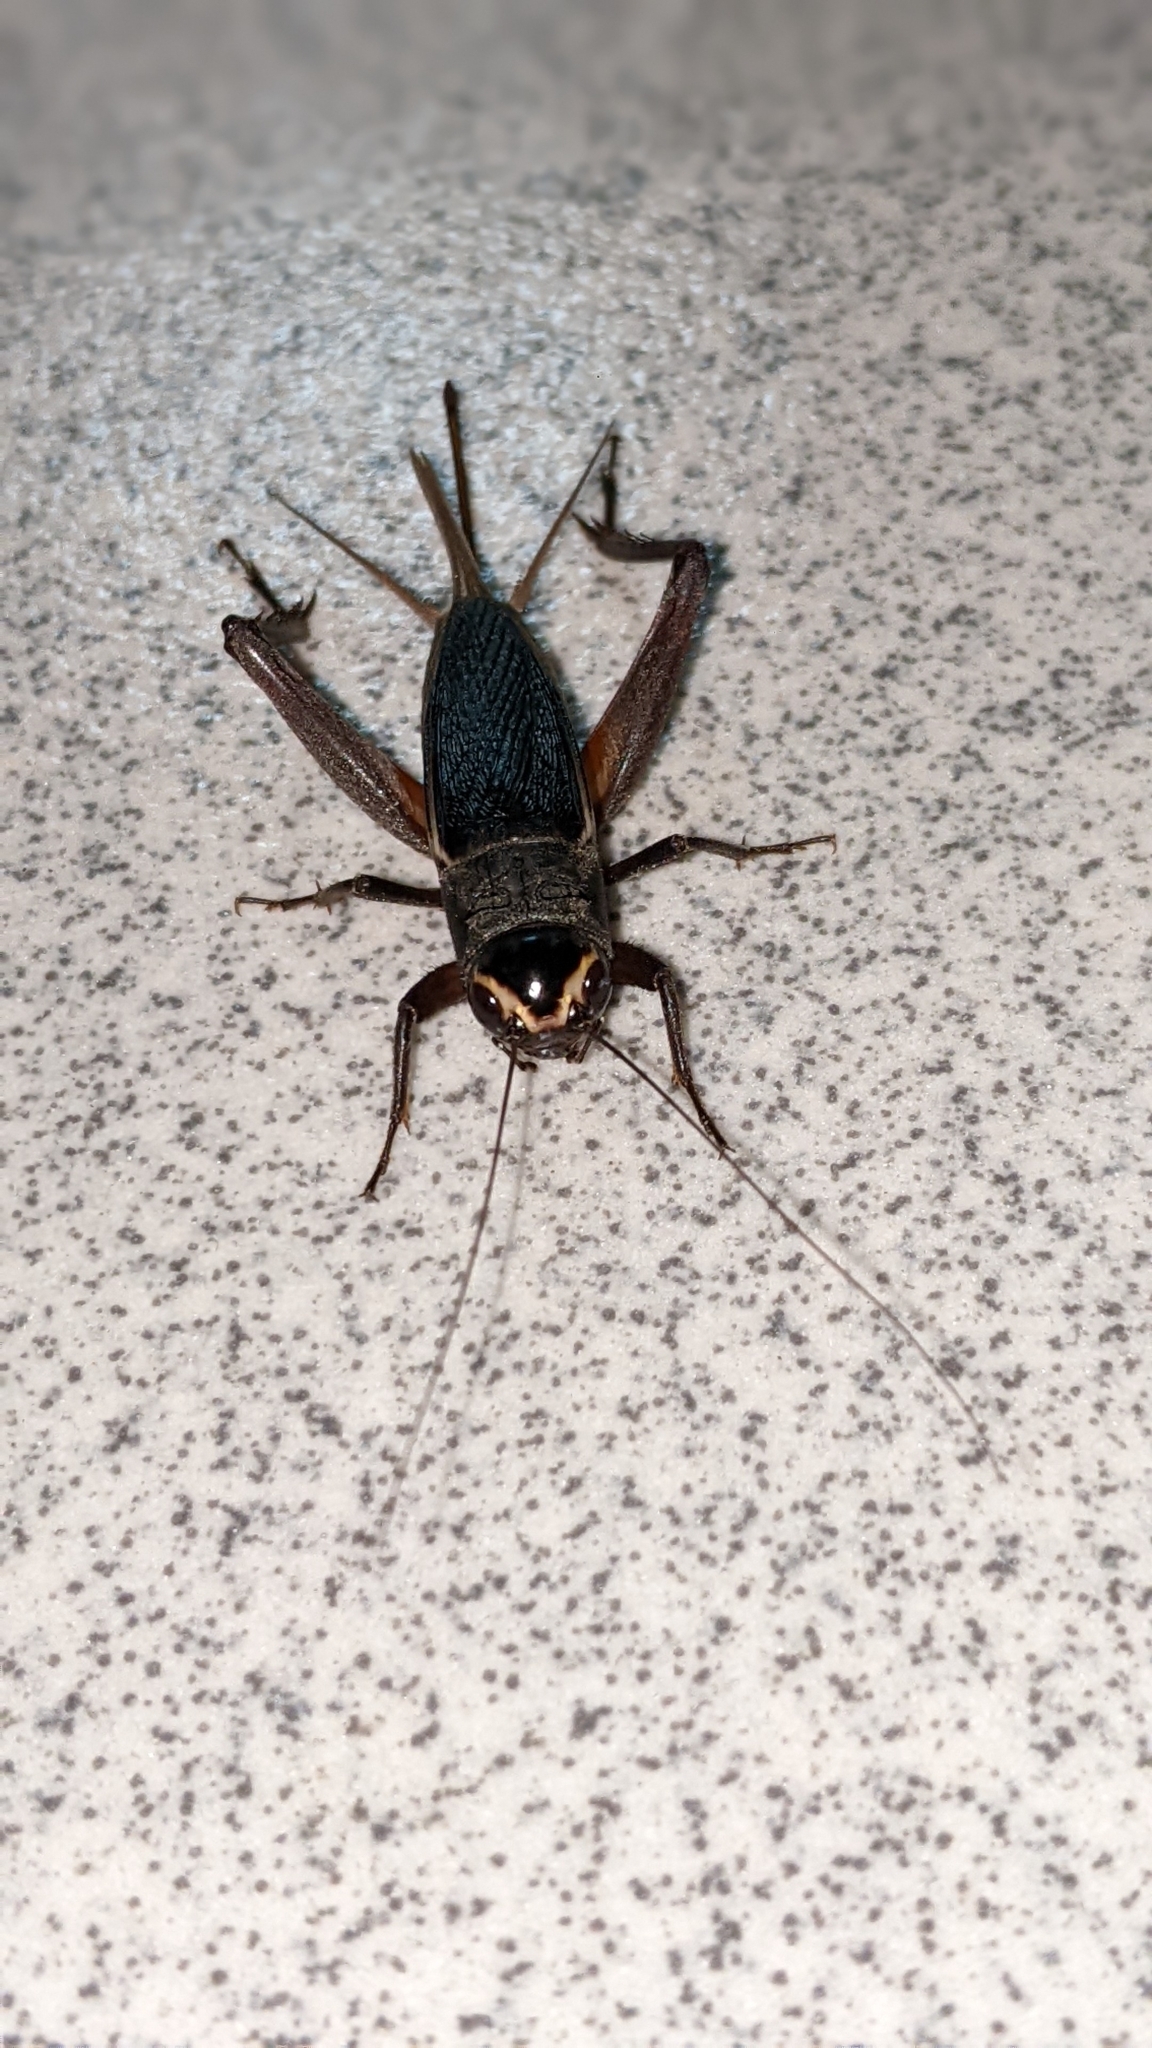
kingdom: Animalia
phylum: Arthropoda
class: Insecta
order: Orthoptera
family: Gryllidae
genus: Teleogryllus
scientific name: Teleogryllus occipitalis
